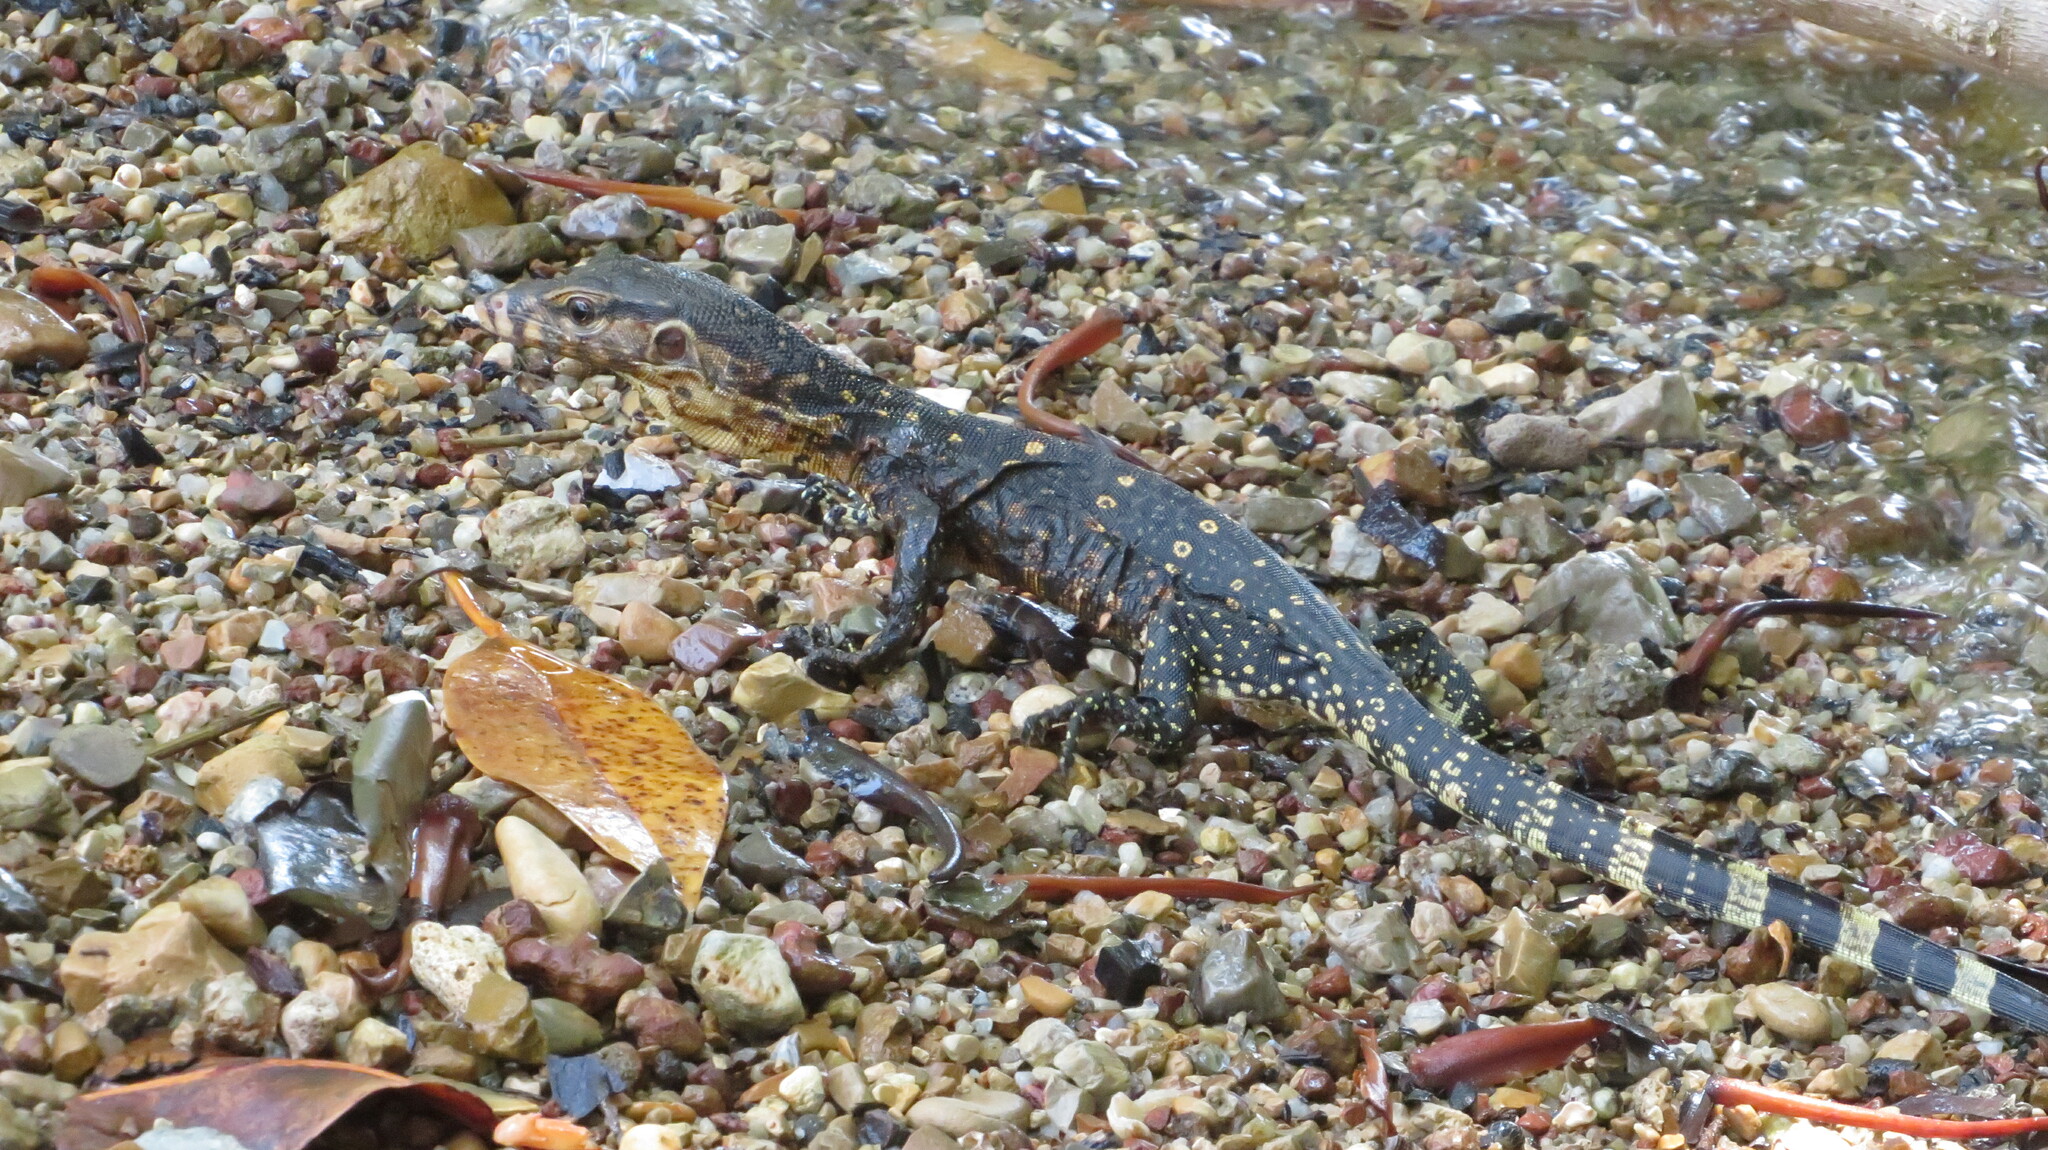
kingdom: Animalia
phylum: Chordata
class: Squamata
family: Varanidae
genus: Varanus
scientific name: Varanus salvator
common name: Common water monitor
